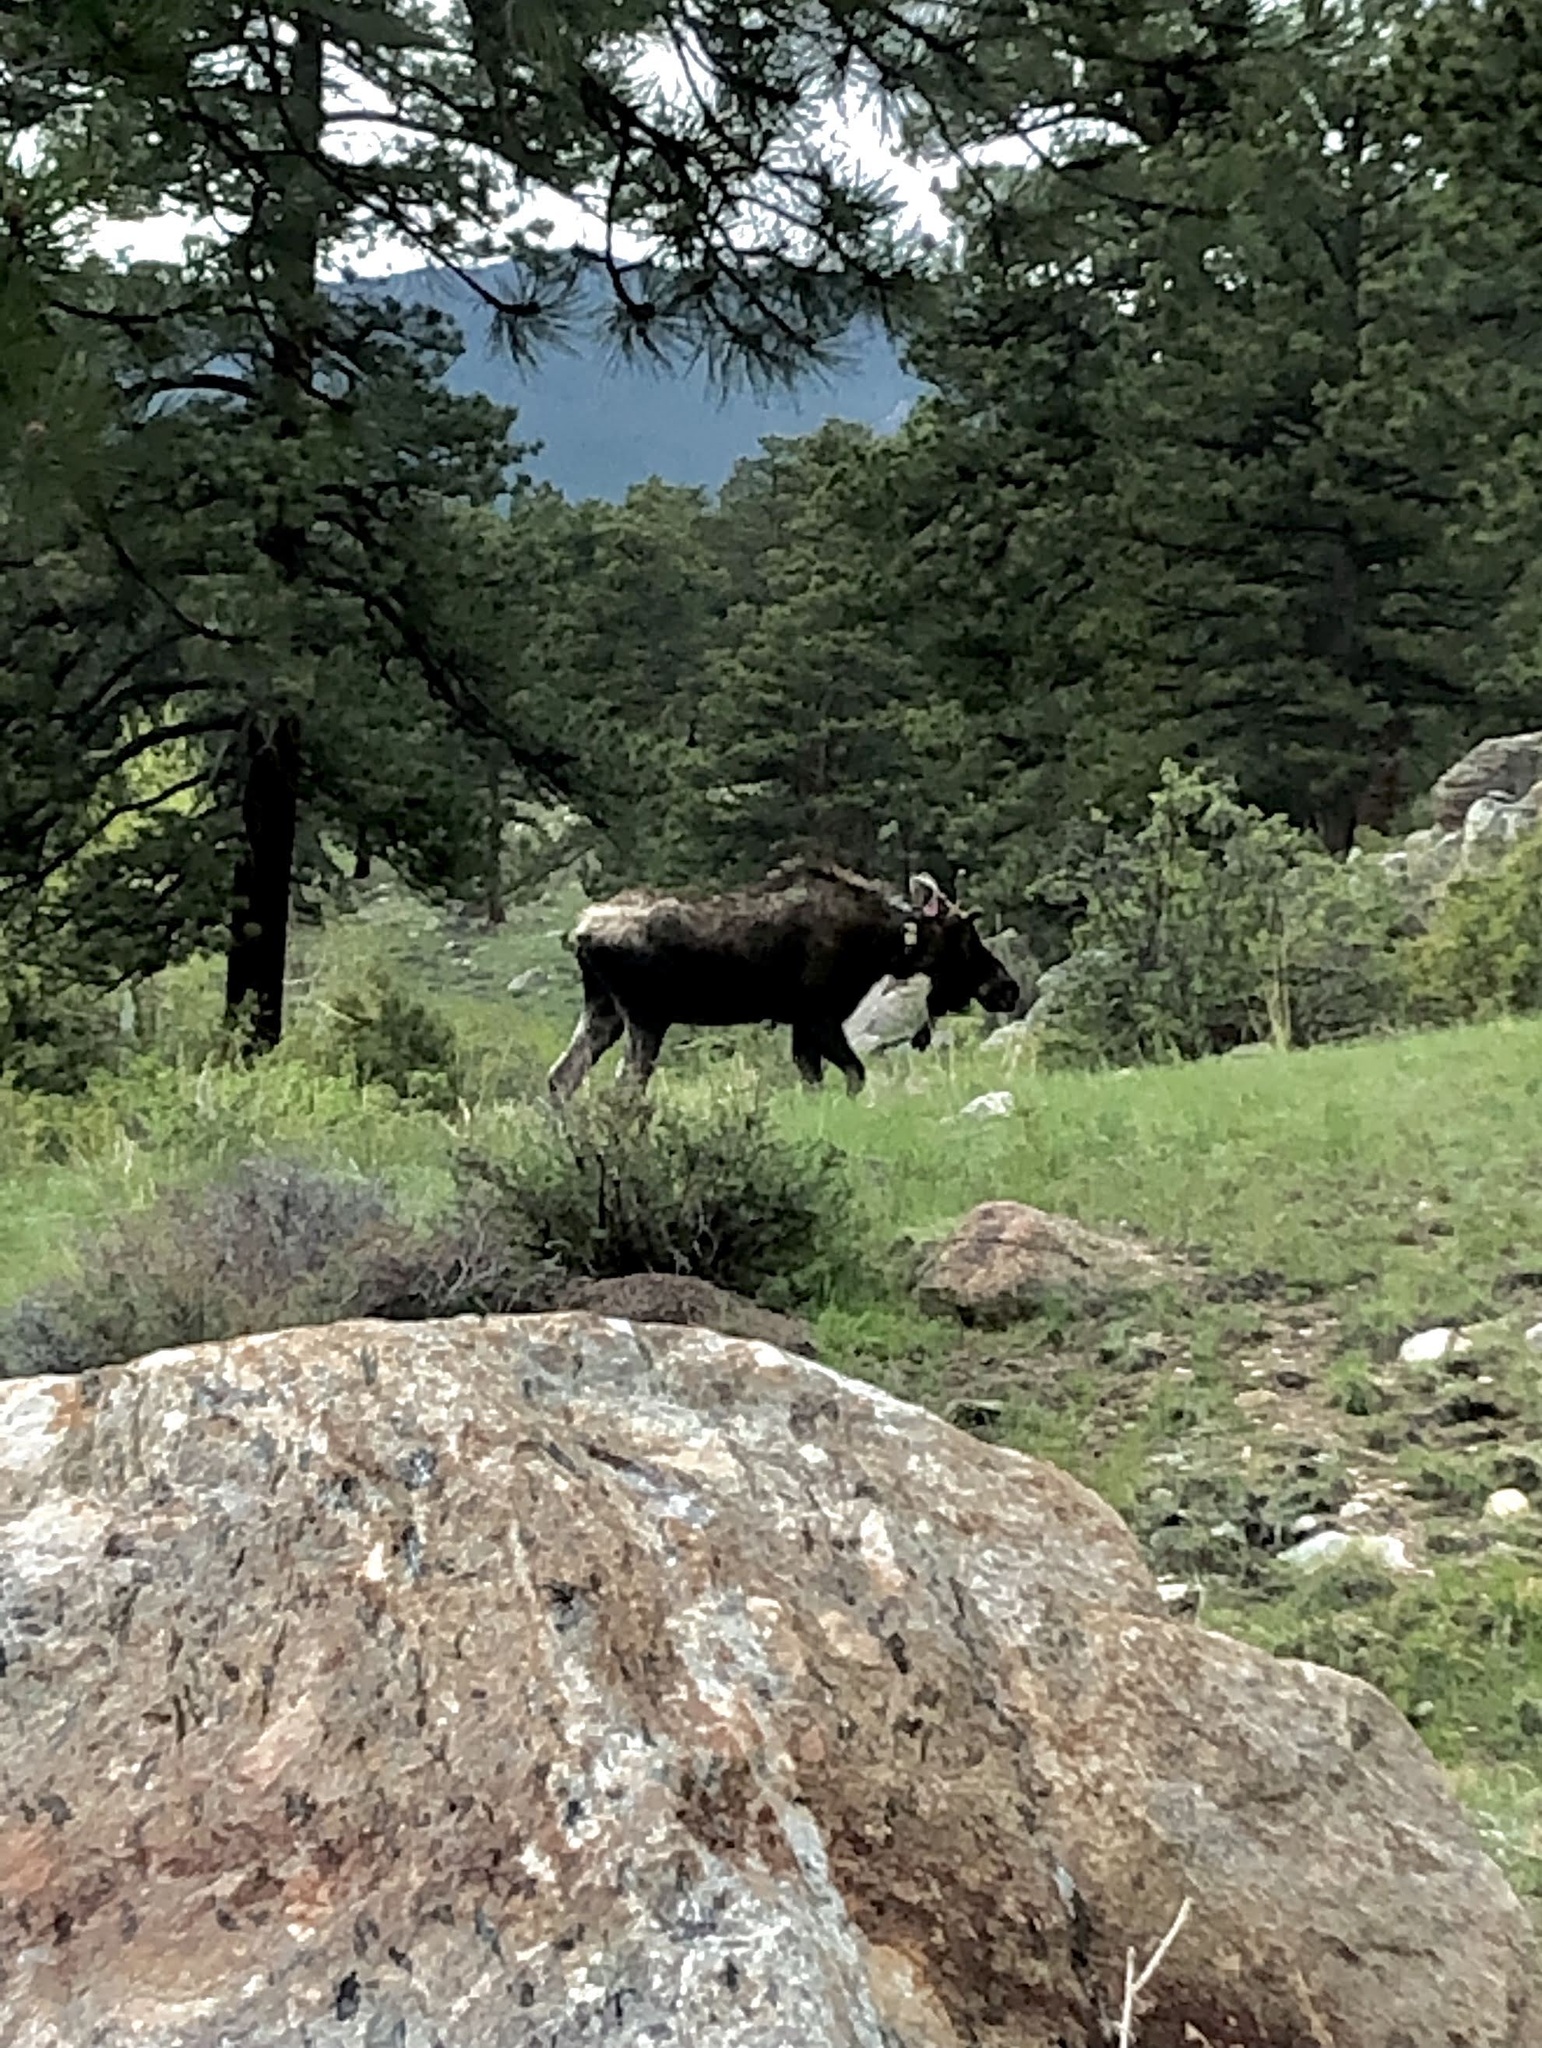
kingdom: Animalia
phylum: Chordata
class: Mammalia
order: Artiodactyla
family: Cervidae
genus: Alces
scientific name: Alces alces
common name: Moose
